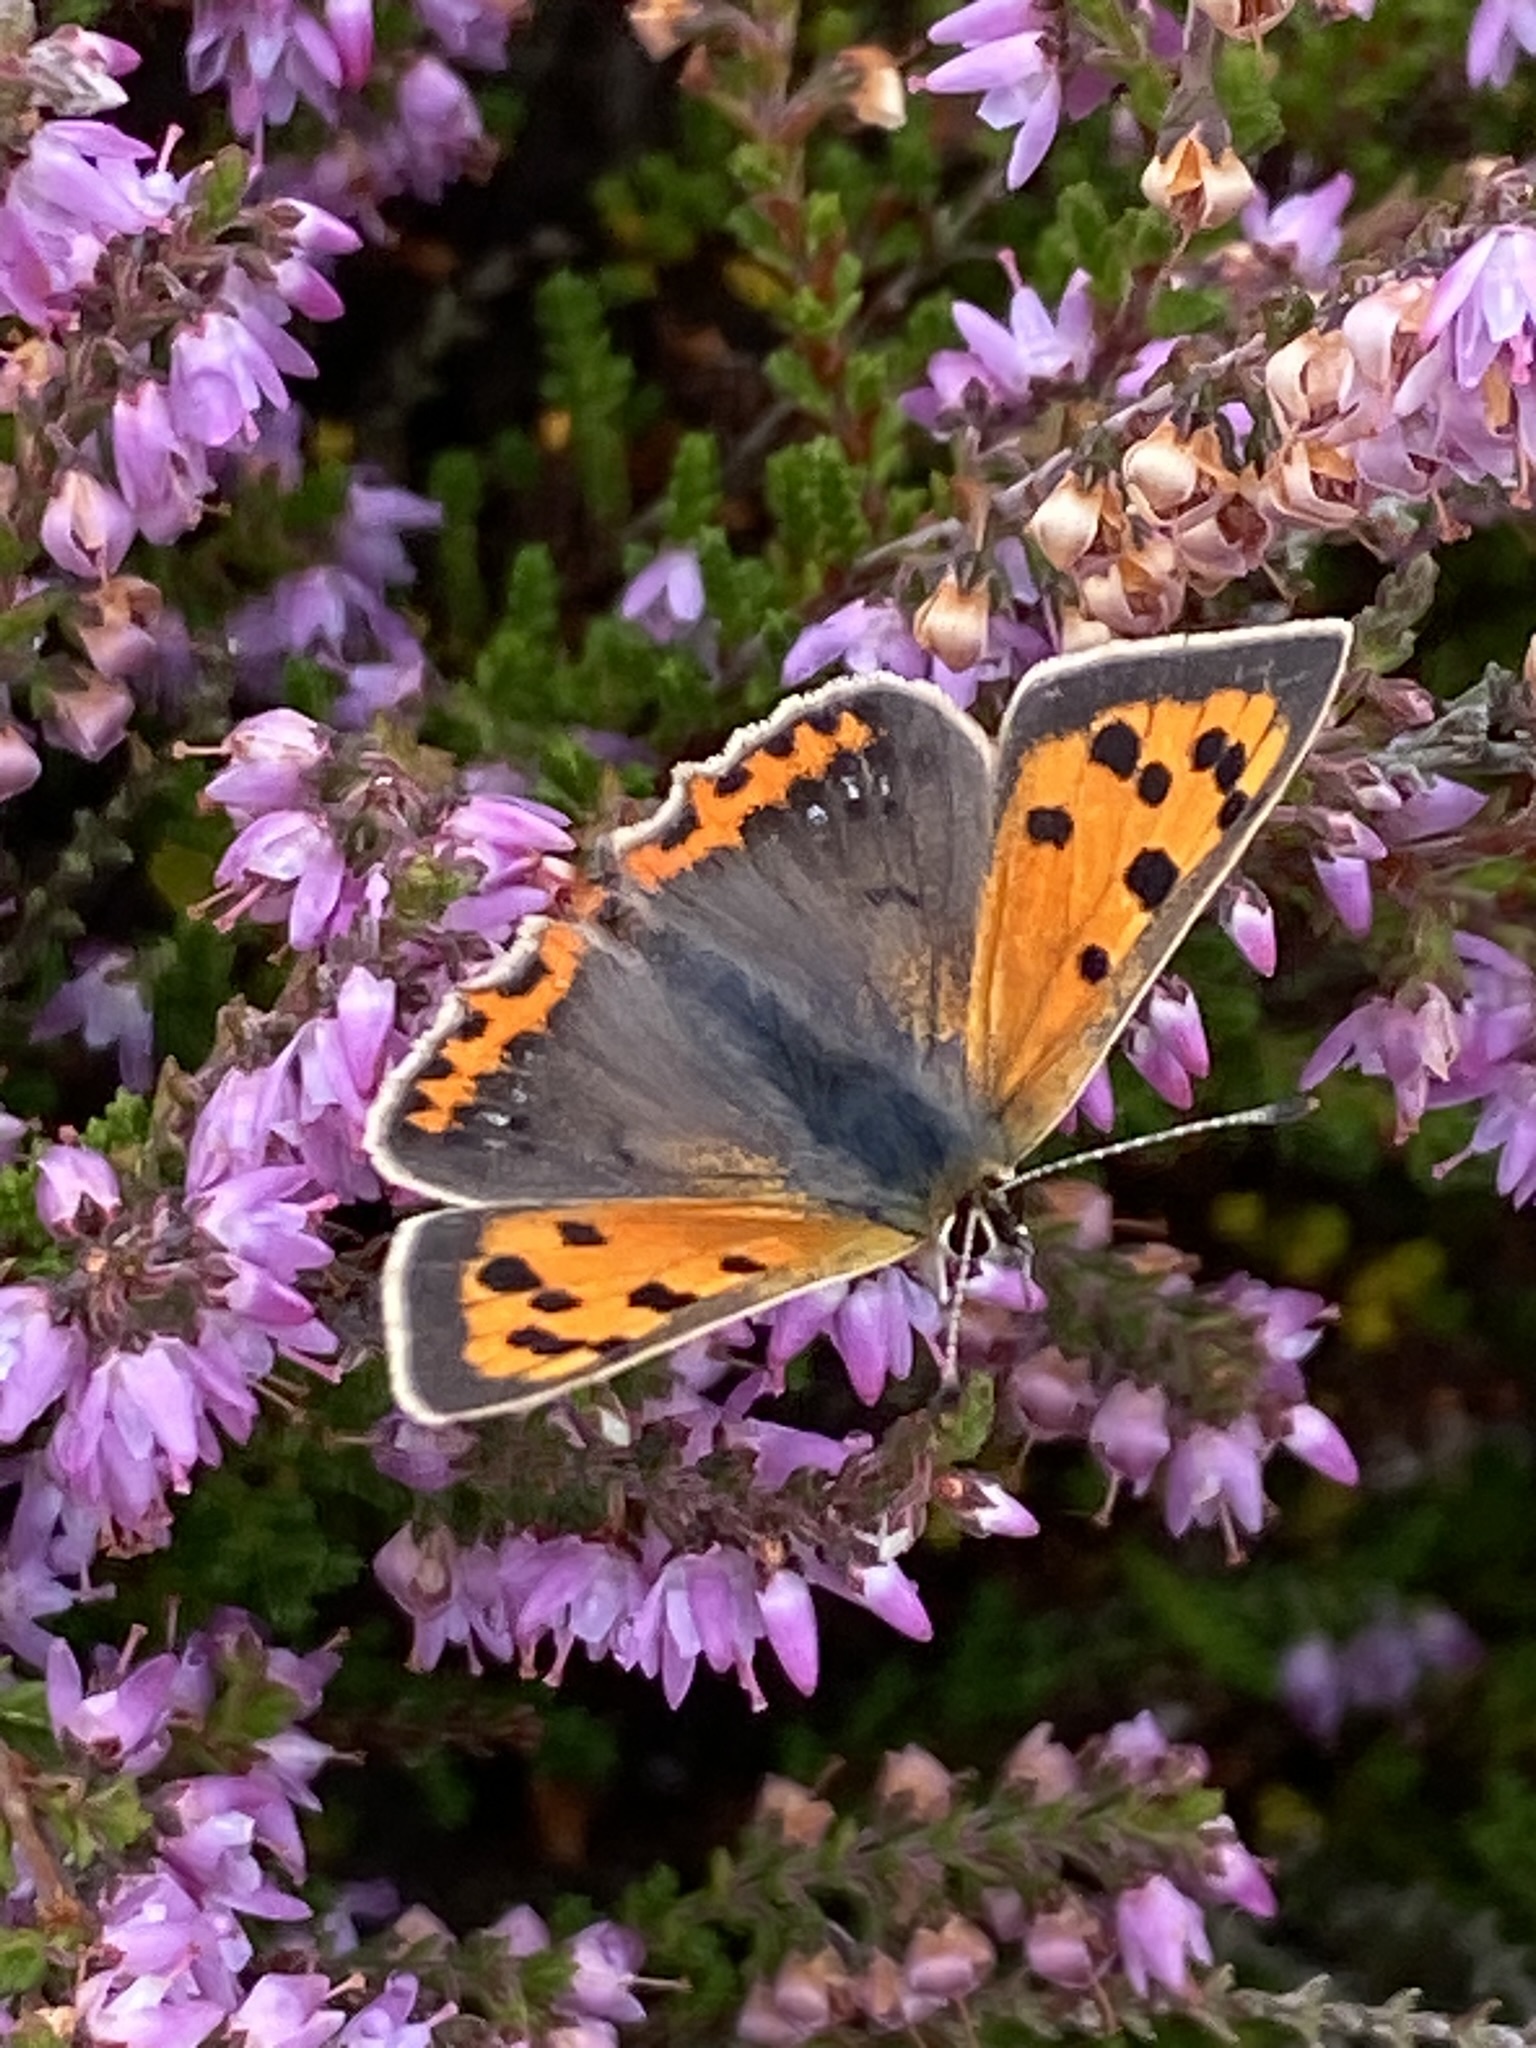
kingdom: Animalia
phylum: Arthropoda
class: Insecta
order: Lepidoptera
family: Lycaenidae
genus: Lycaena
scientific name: Lycaena phlaeas
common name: Small copper
